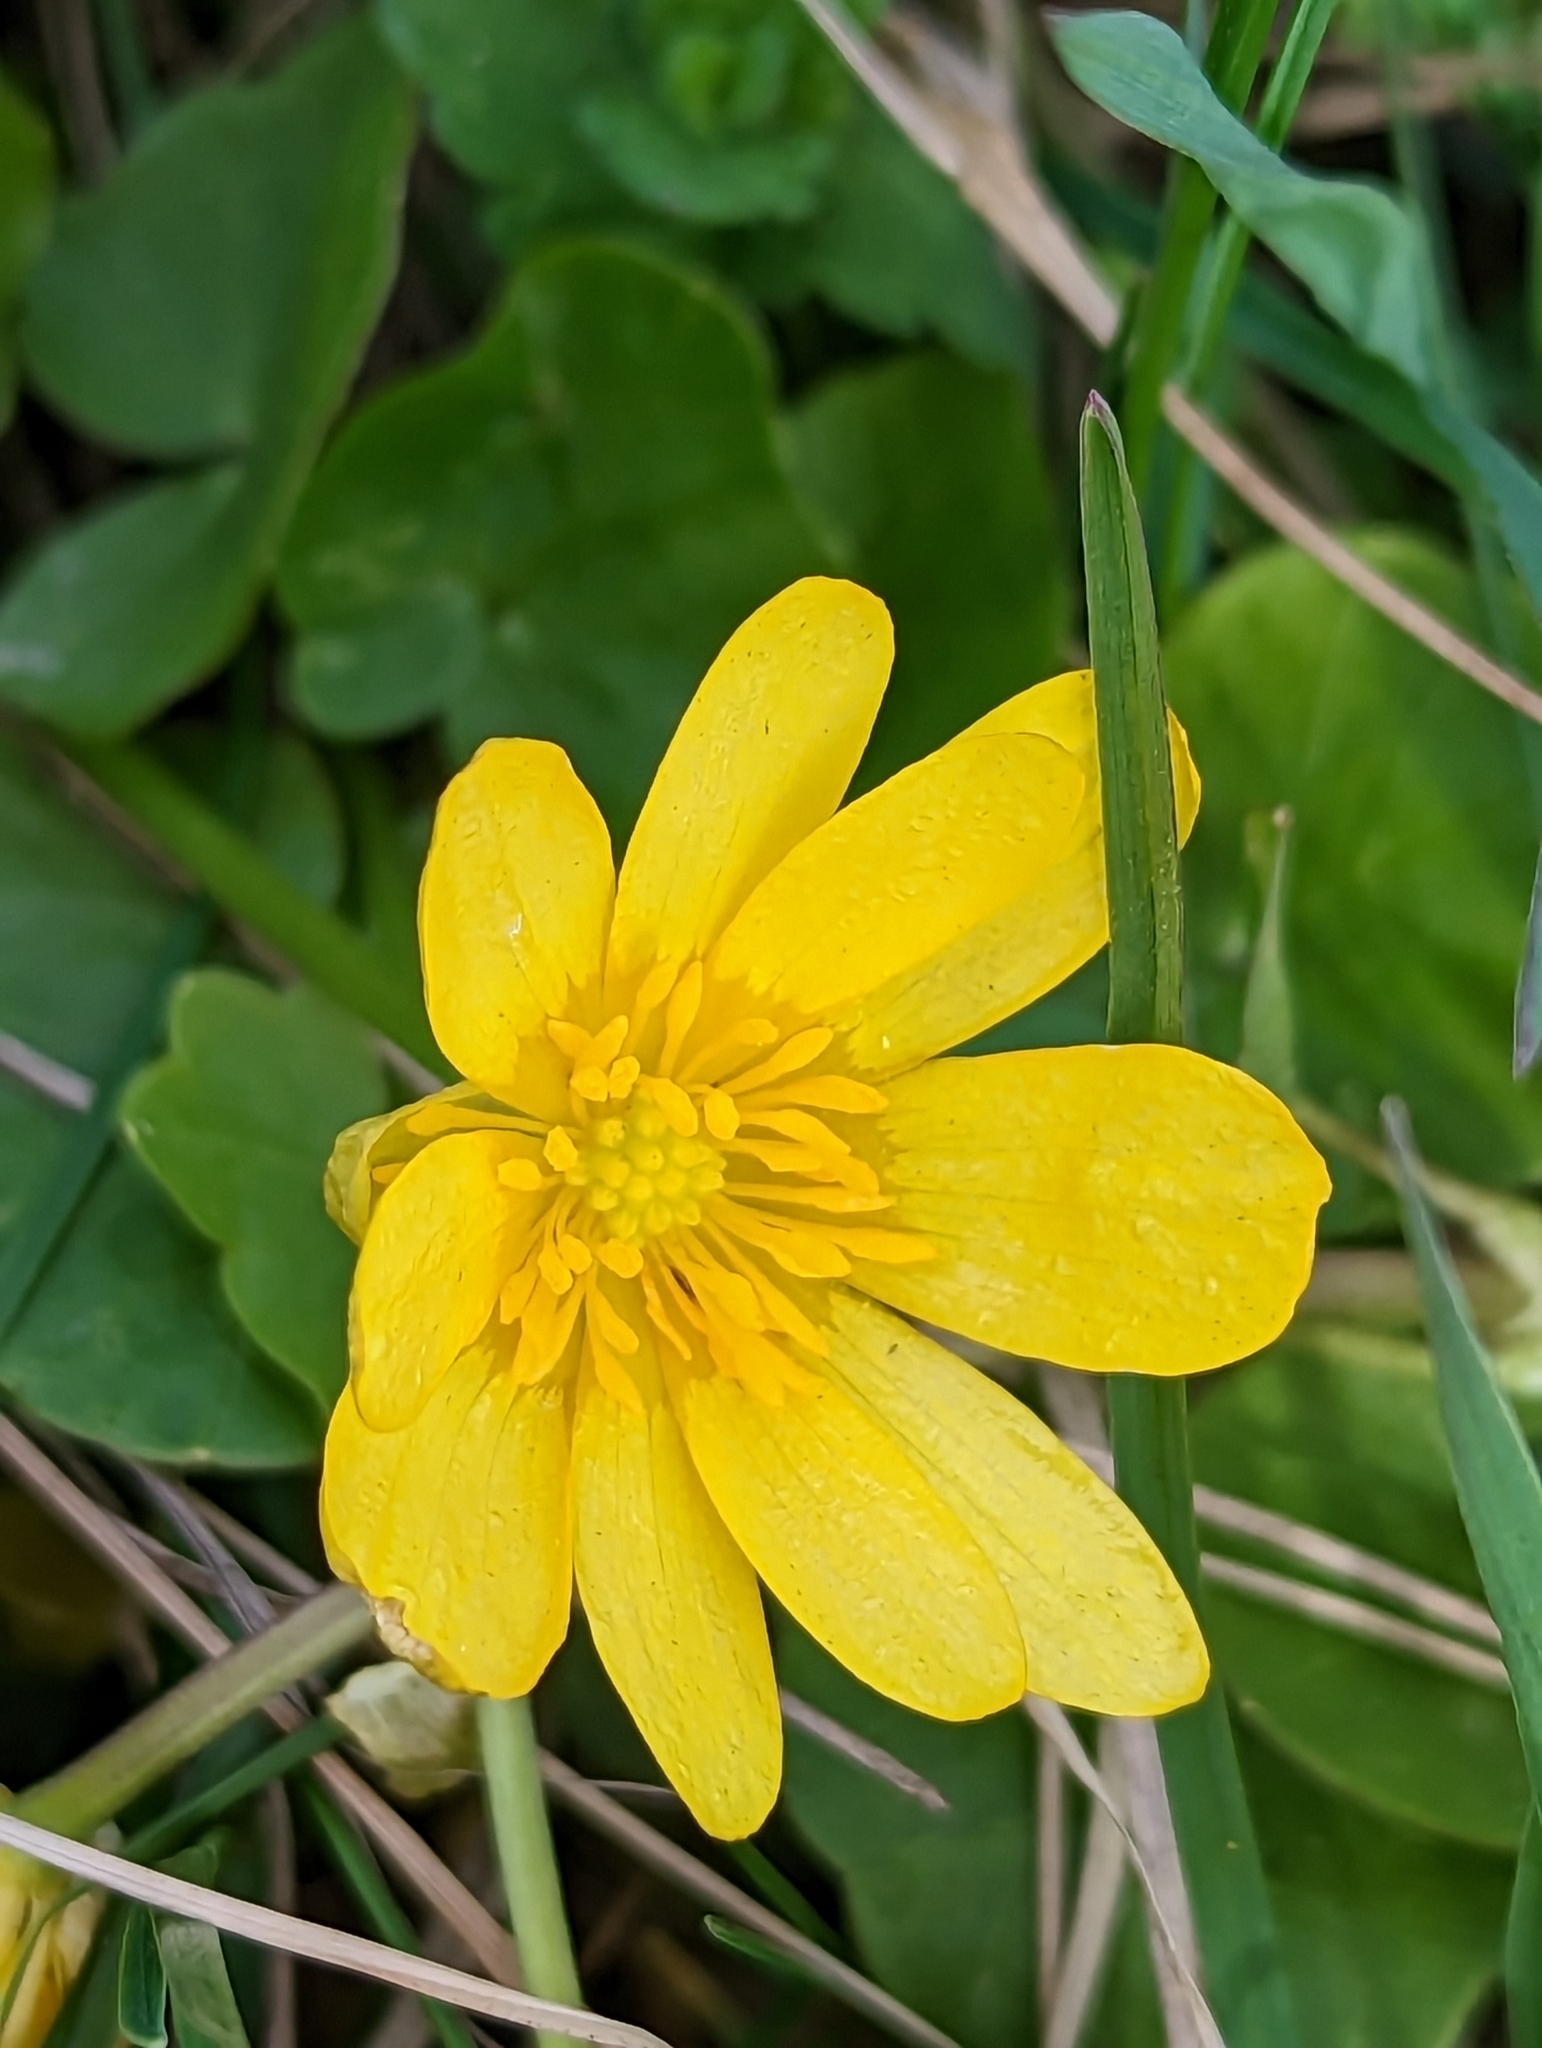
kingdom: Plantae
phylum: Tracheophyta
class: Magnoliopsida
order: Ranunculales
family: Ranunculaceae
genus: Ficaria
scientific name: Ficaria verna
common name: Lesser celandine
